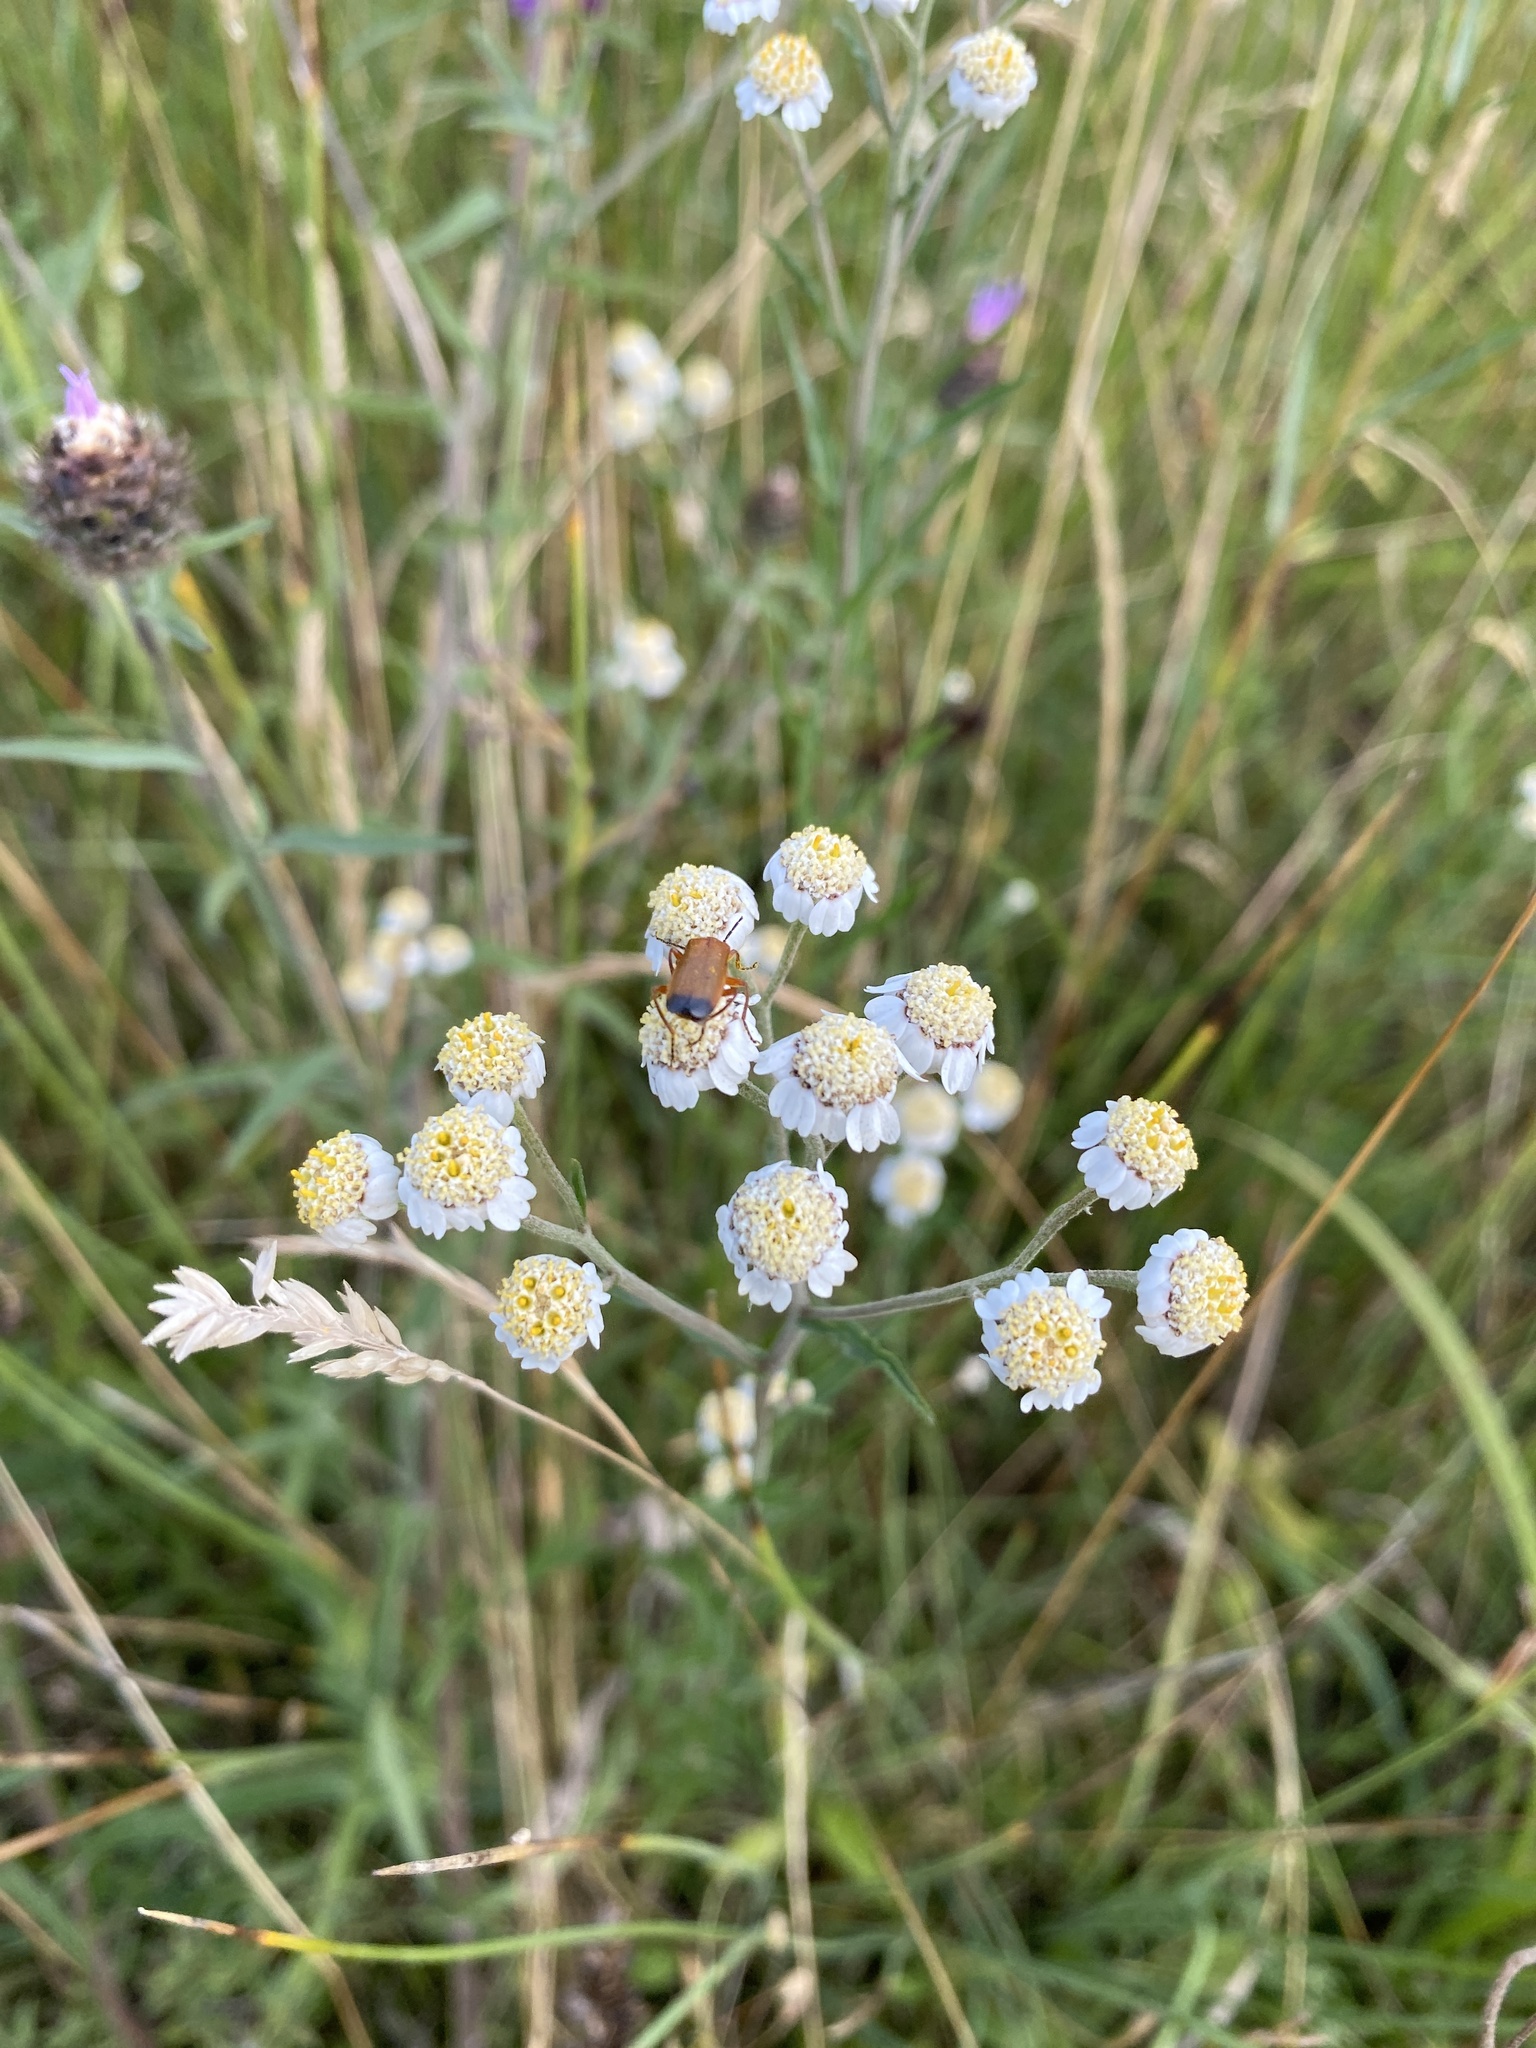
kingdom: Plantae
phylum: Tracheophyta
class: Magnoliopsida
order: Asterales
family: Asteraceae
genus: Achillea
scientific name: Achillea ptarmica
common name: Sneezeweed
